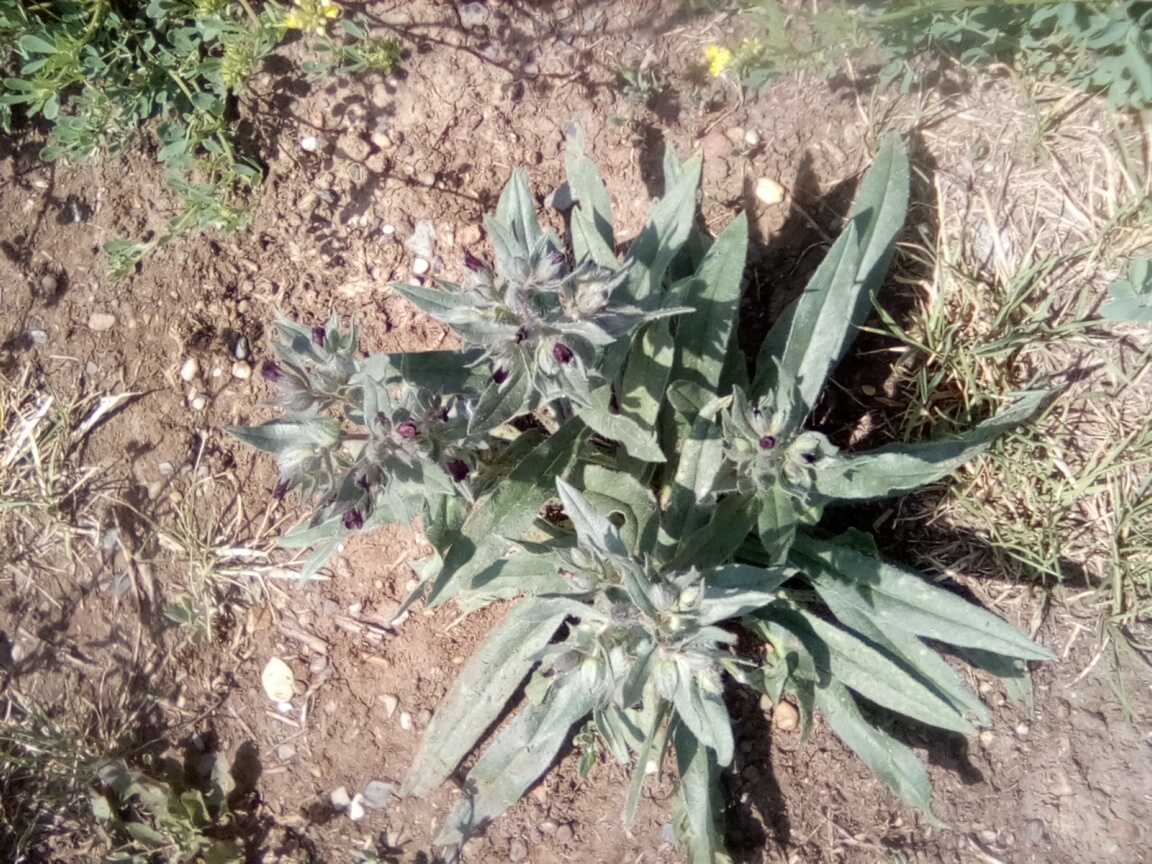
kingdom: Plantae
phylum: Tracheophyta
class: Magnoliopsida
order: Boraginales
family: Boraginaceae
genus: Nonea
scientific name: Nonea pulla
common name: Brown nonea
